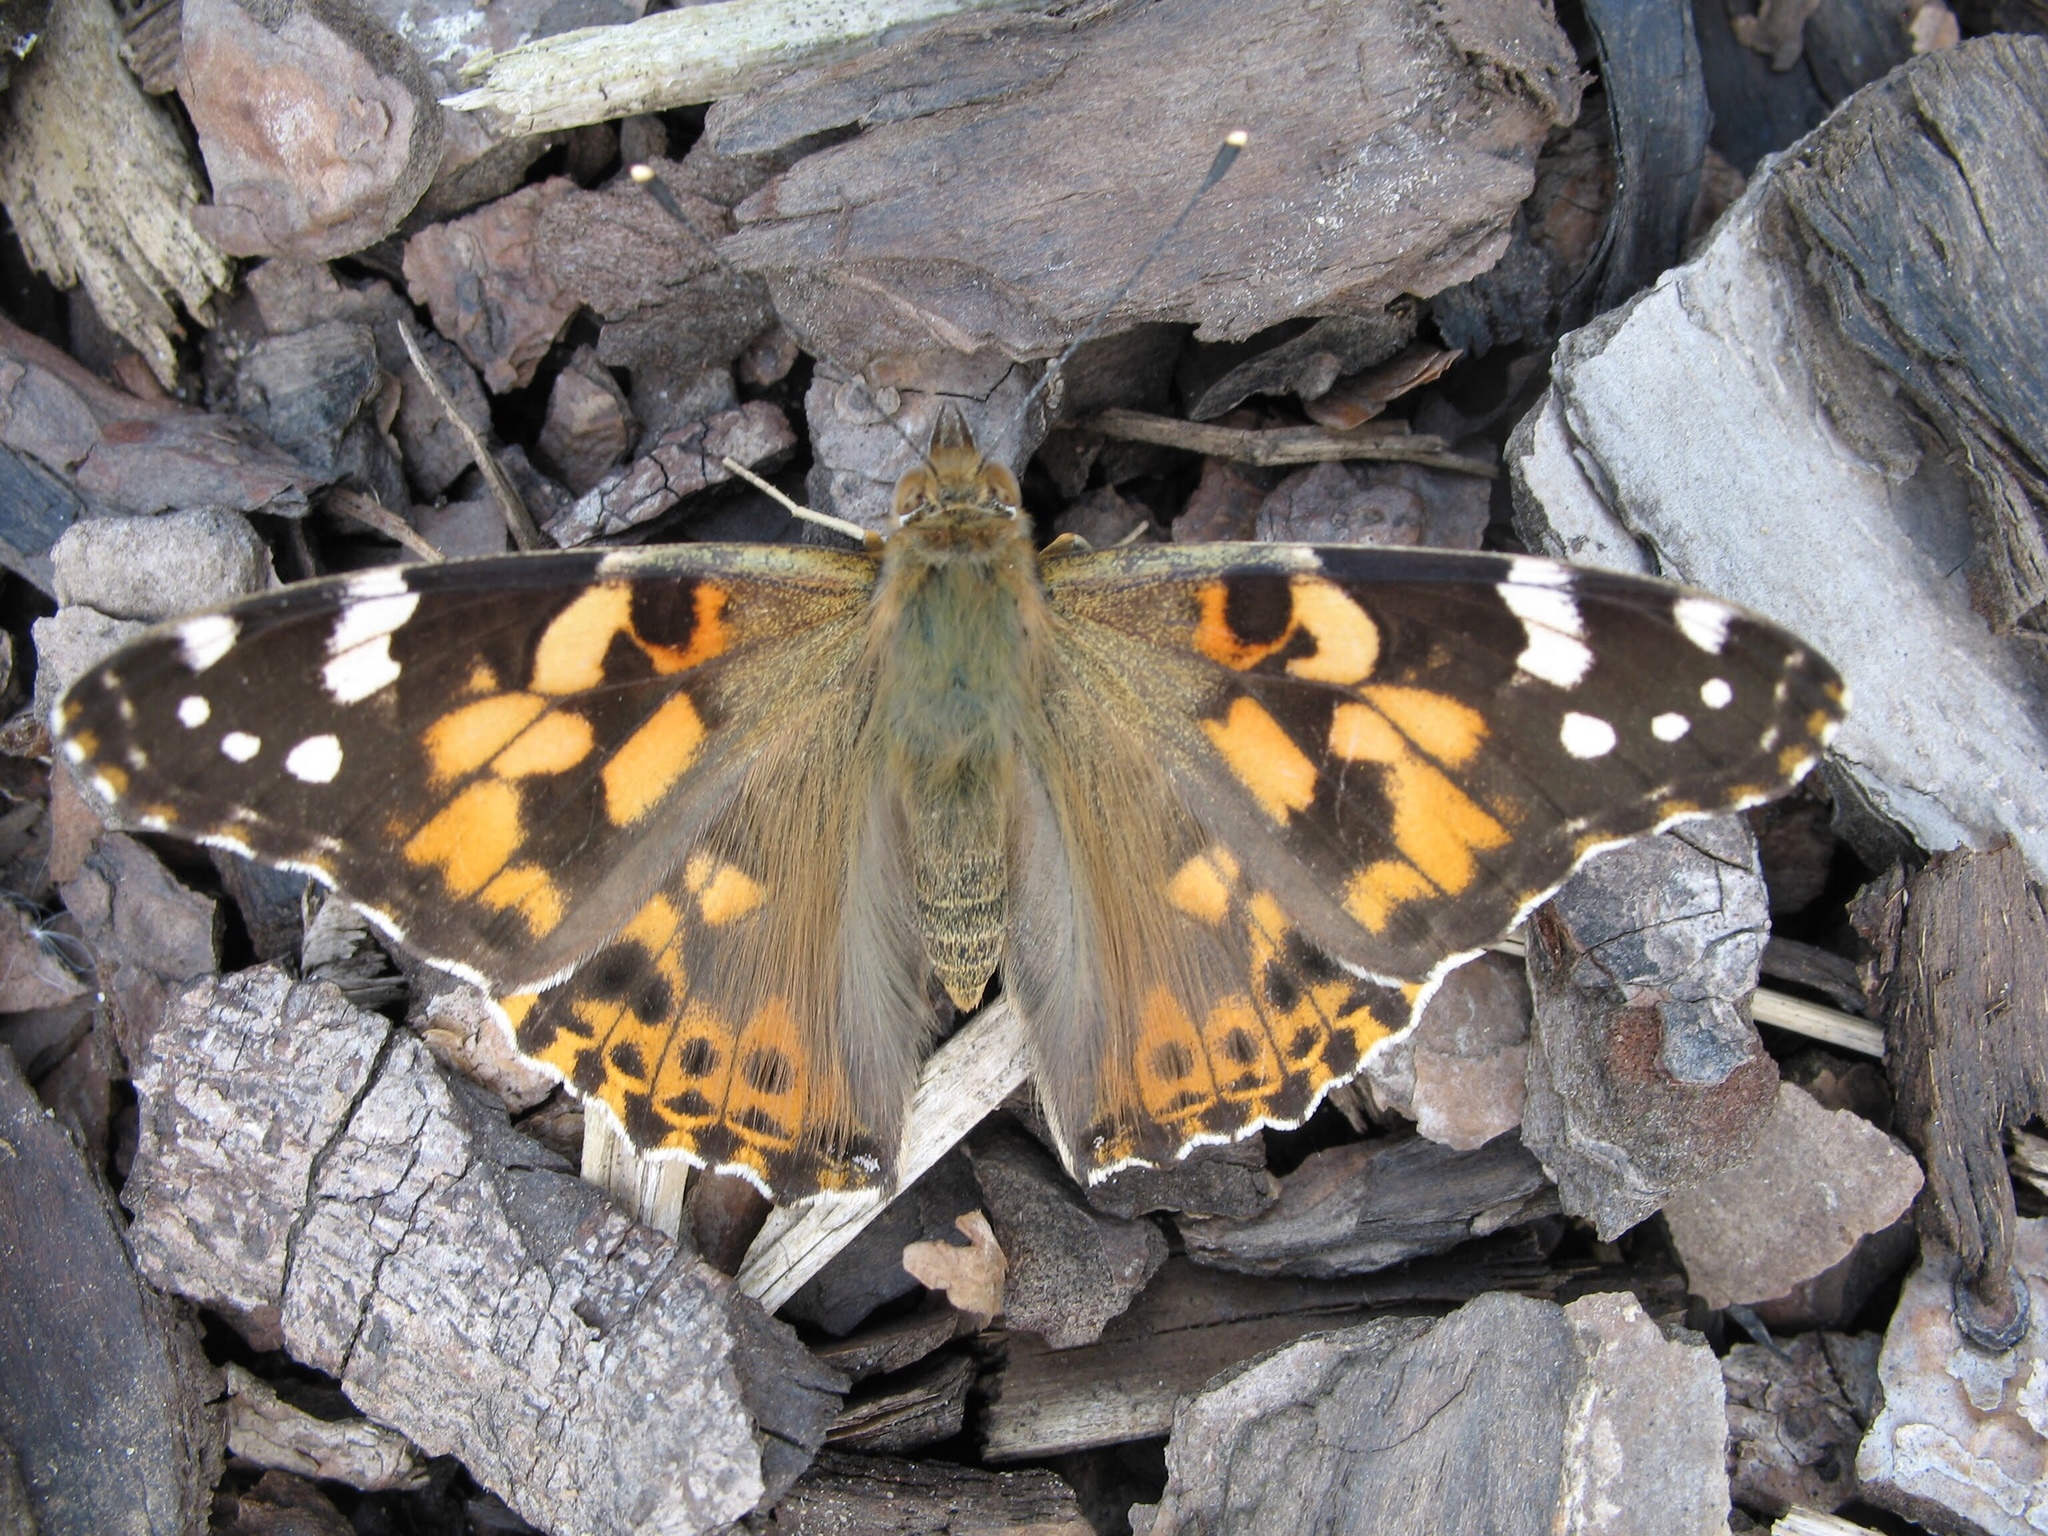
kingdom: Animalia
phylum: Arthropoda
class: Insecta
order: Lepidoptera
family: Nymphalidae
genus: Vanessa
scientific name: Vanessa cardui
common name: Painted lady
